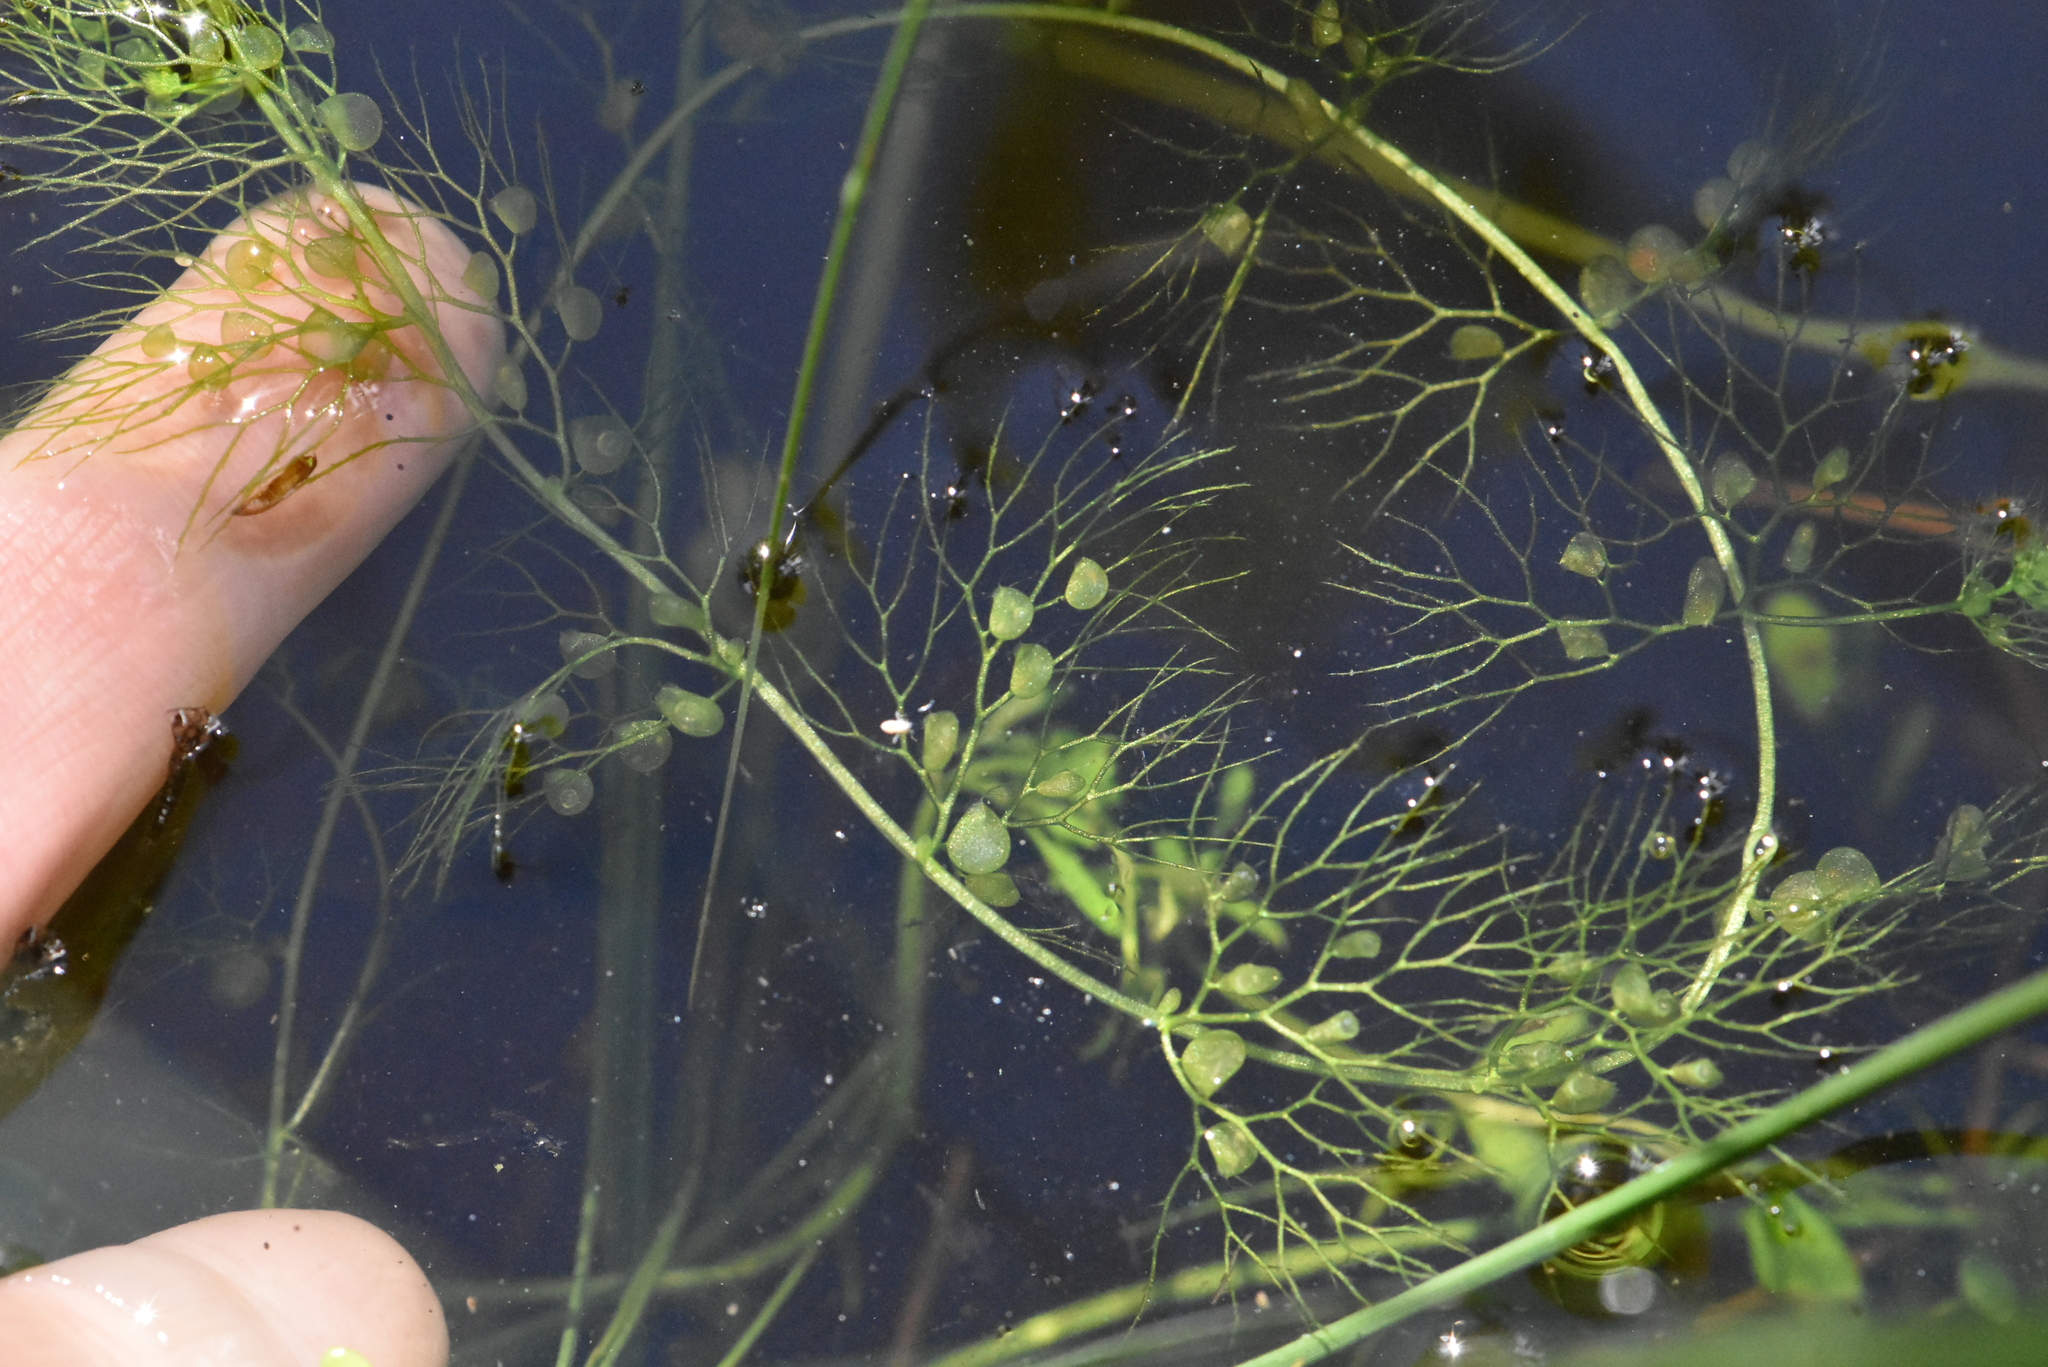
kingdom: Plantae
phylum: Tracheophyta
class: Magnoliopsida
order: Lamiales
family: Lentibulariaceae
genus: Utricularia
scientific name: Utricularia
